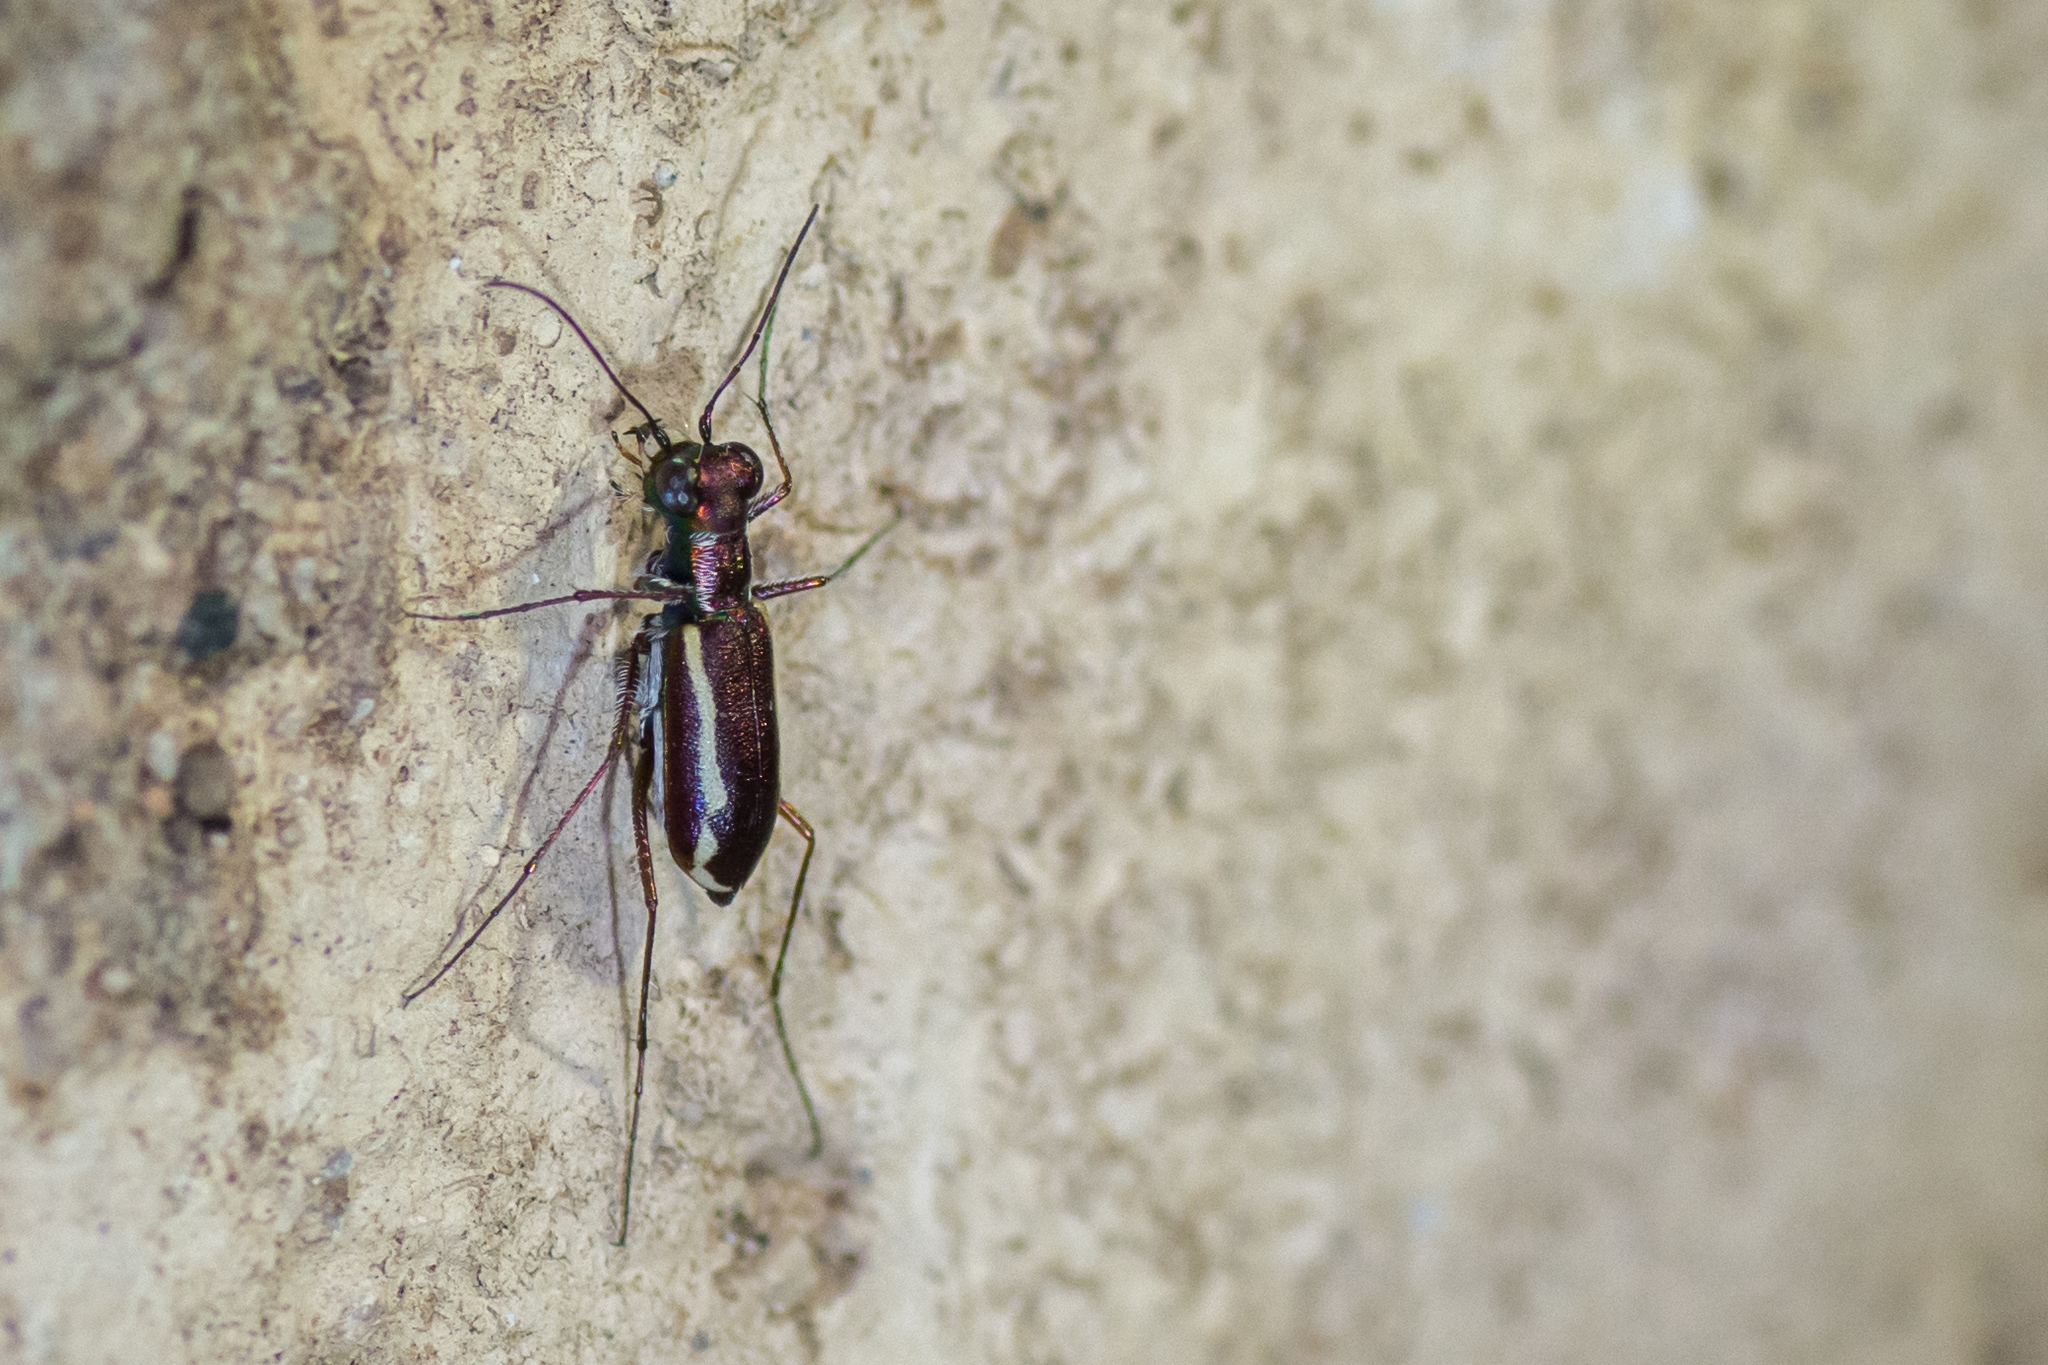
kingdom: Animalia
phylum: Arthropoda
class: Insecta
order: Coleoptera
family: Carabidae
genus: Cylindera
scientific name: Cylindera lemniscata
